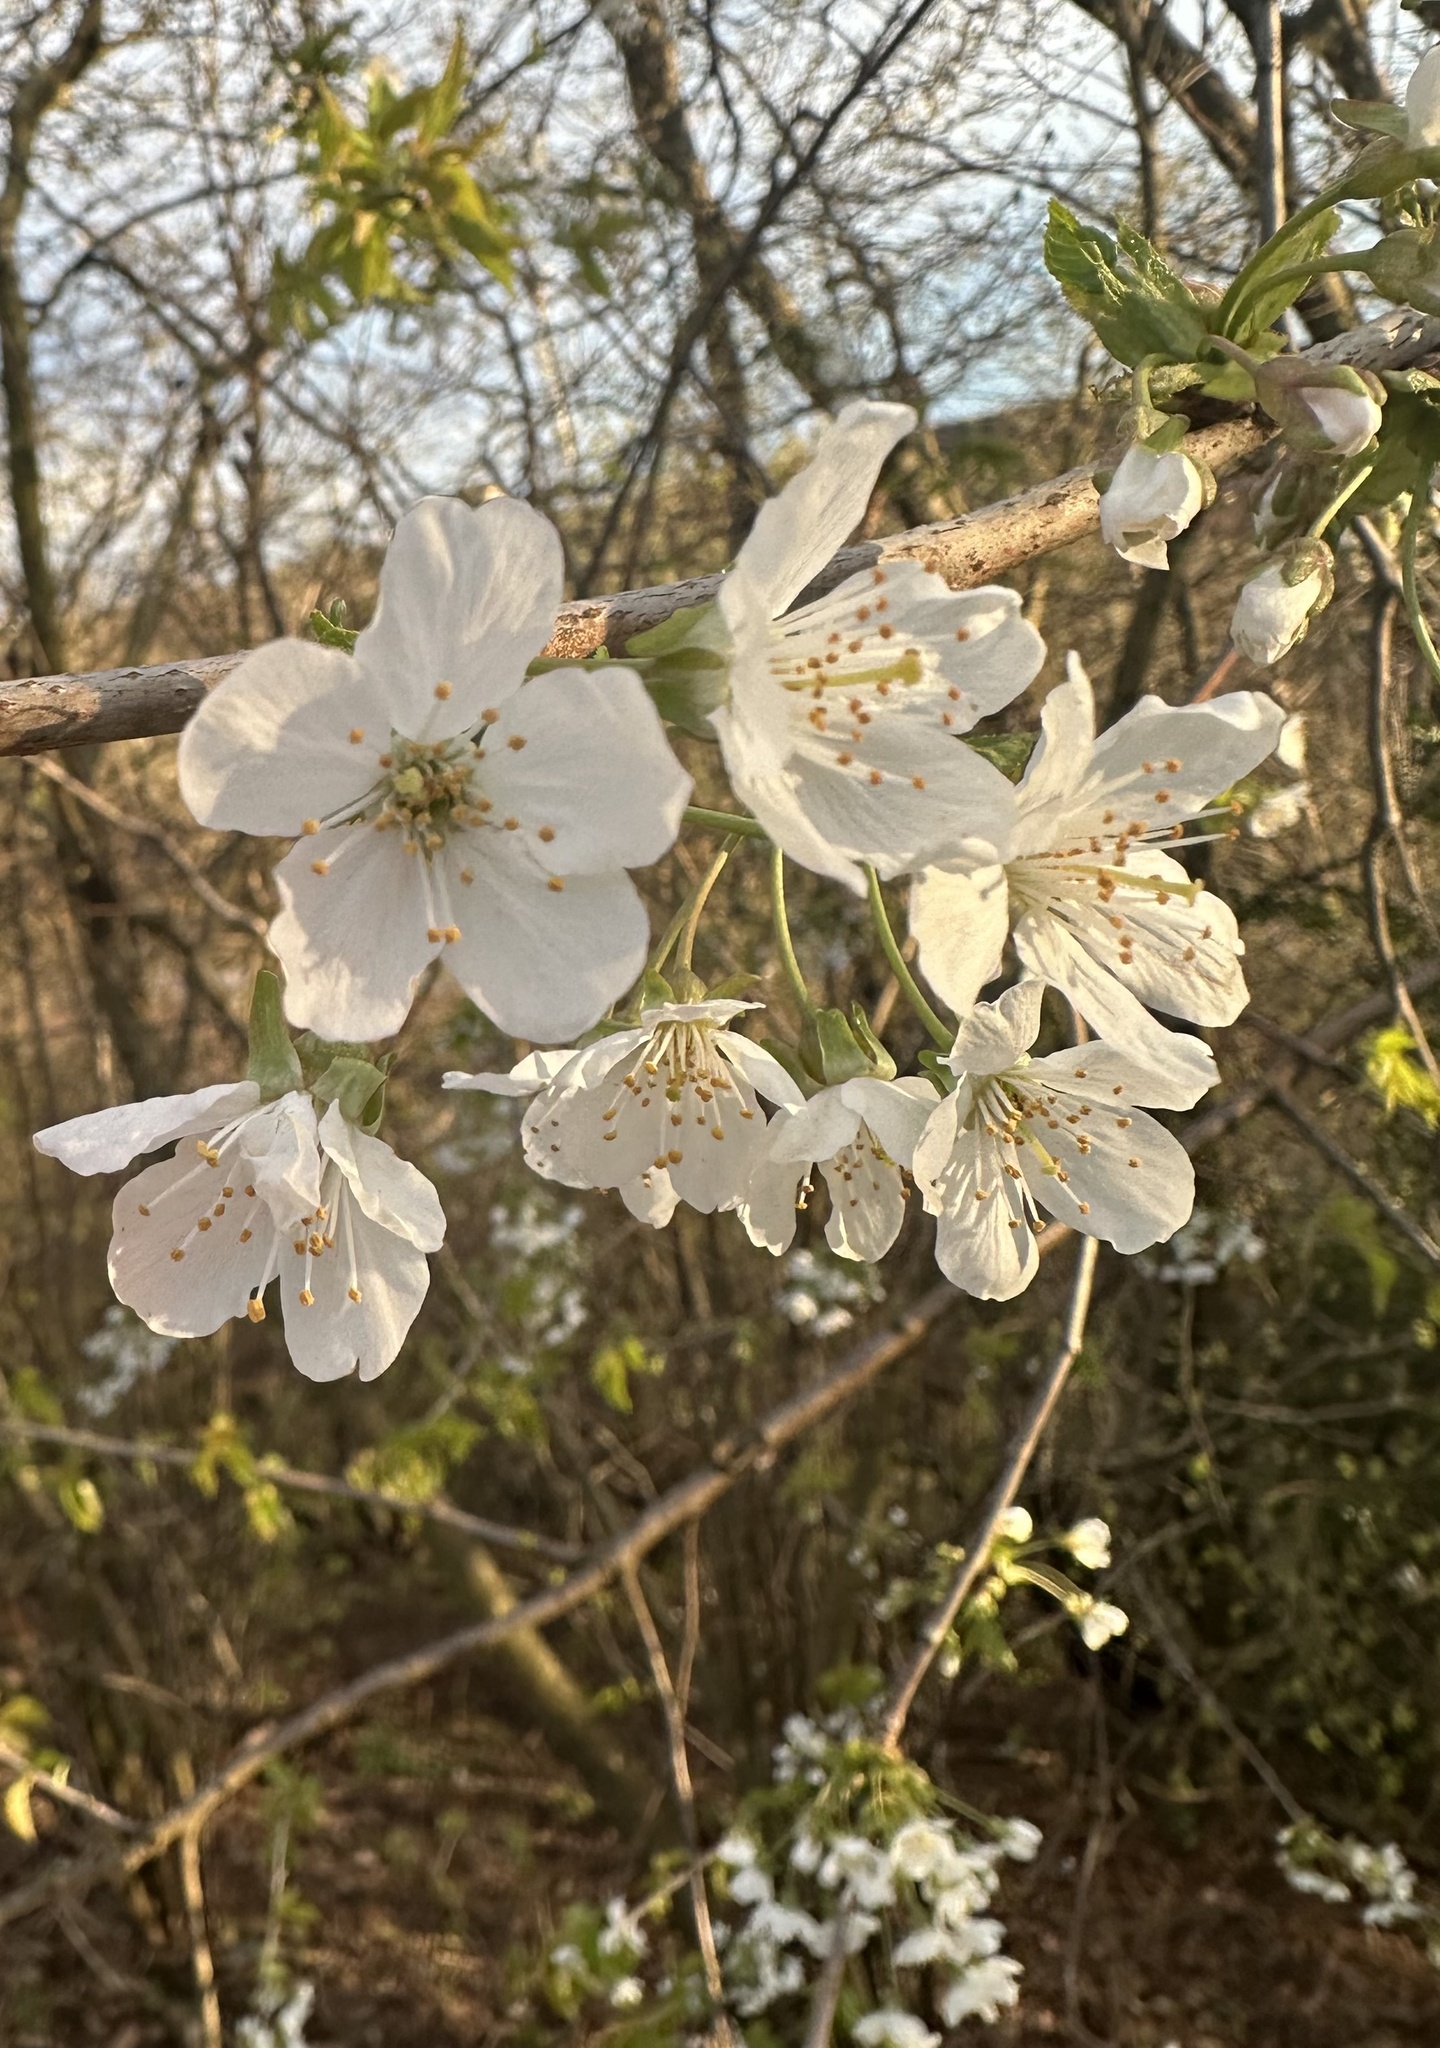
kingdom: Plantae
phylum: Tracheophyta
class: Magnoliopsida
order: Rosales
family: Rosaceae
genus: Prunus
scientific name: Prunus avium
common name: Sweet cherry
